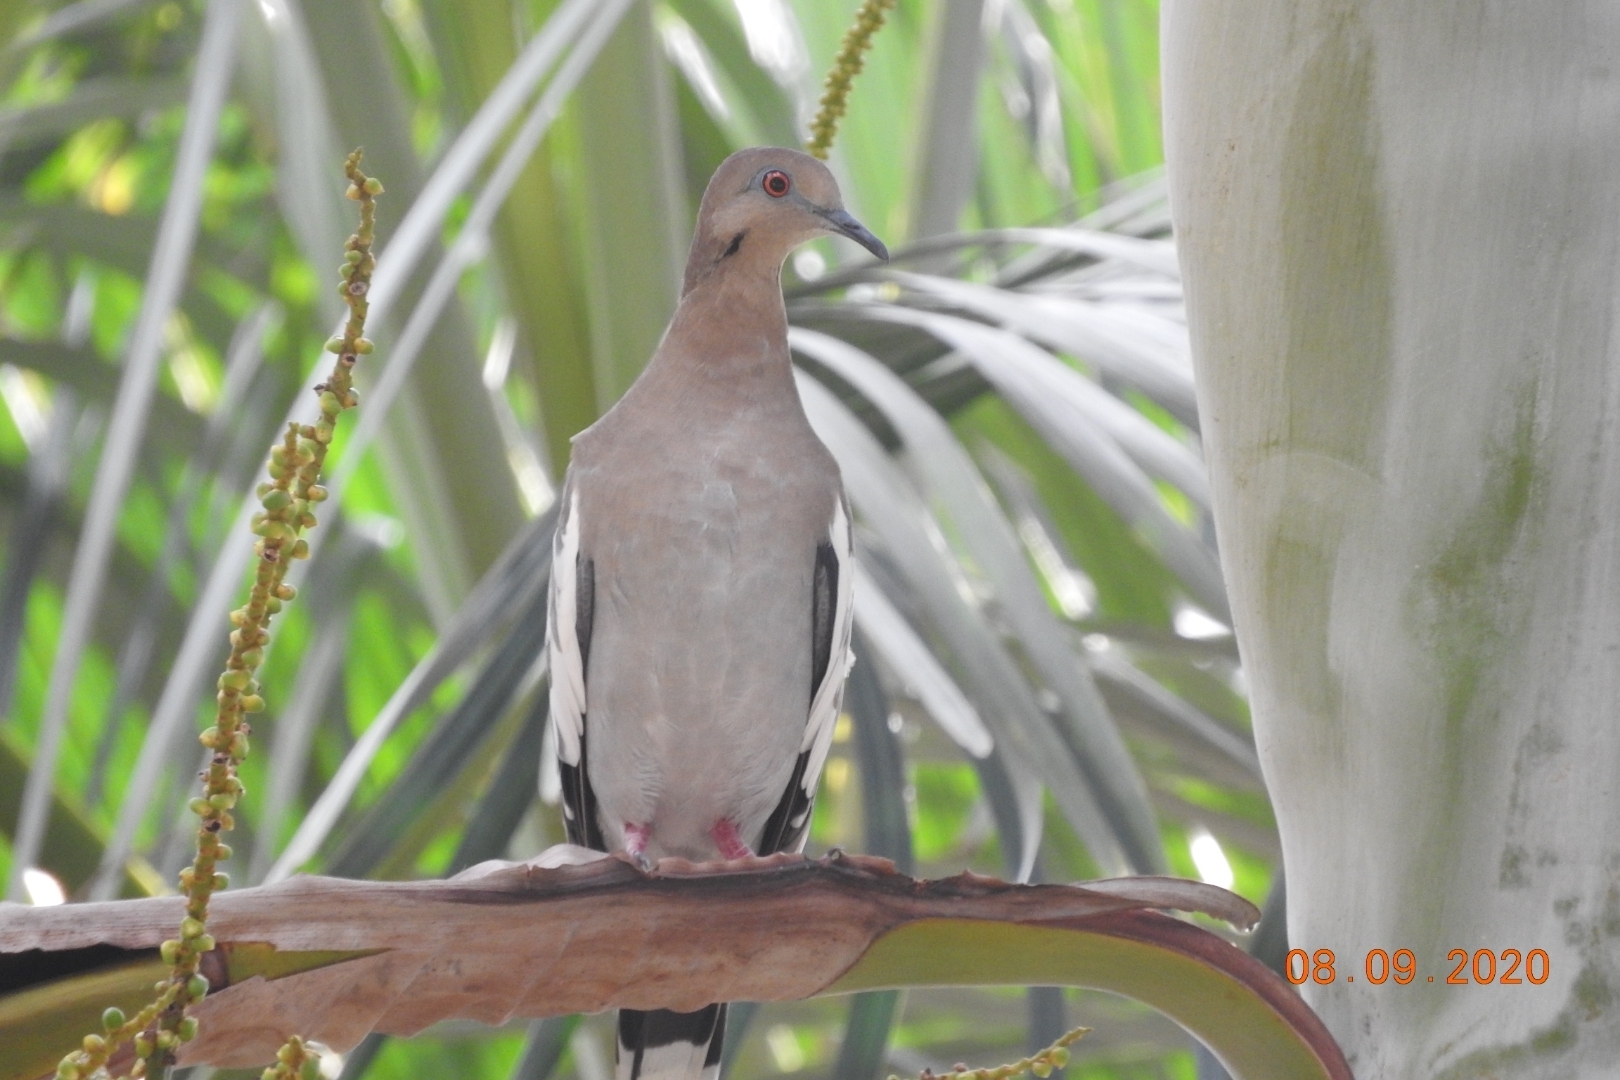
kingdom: Animalia
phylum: Chordata
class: Aves
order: Columbiformes
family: Columbidae
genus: Zenaida
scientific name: Zenaida asiatica
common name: White-winged dove
